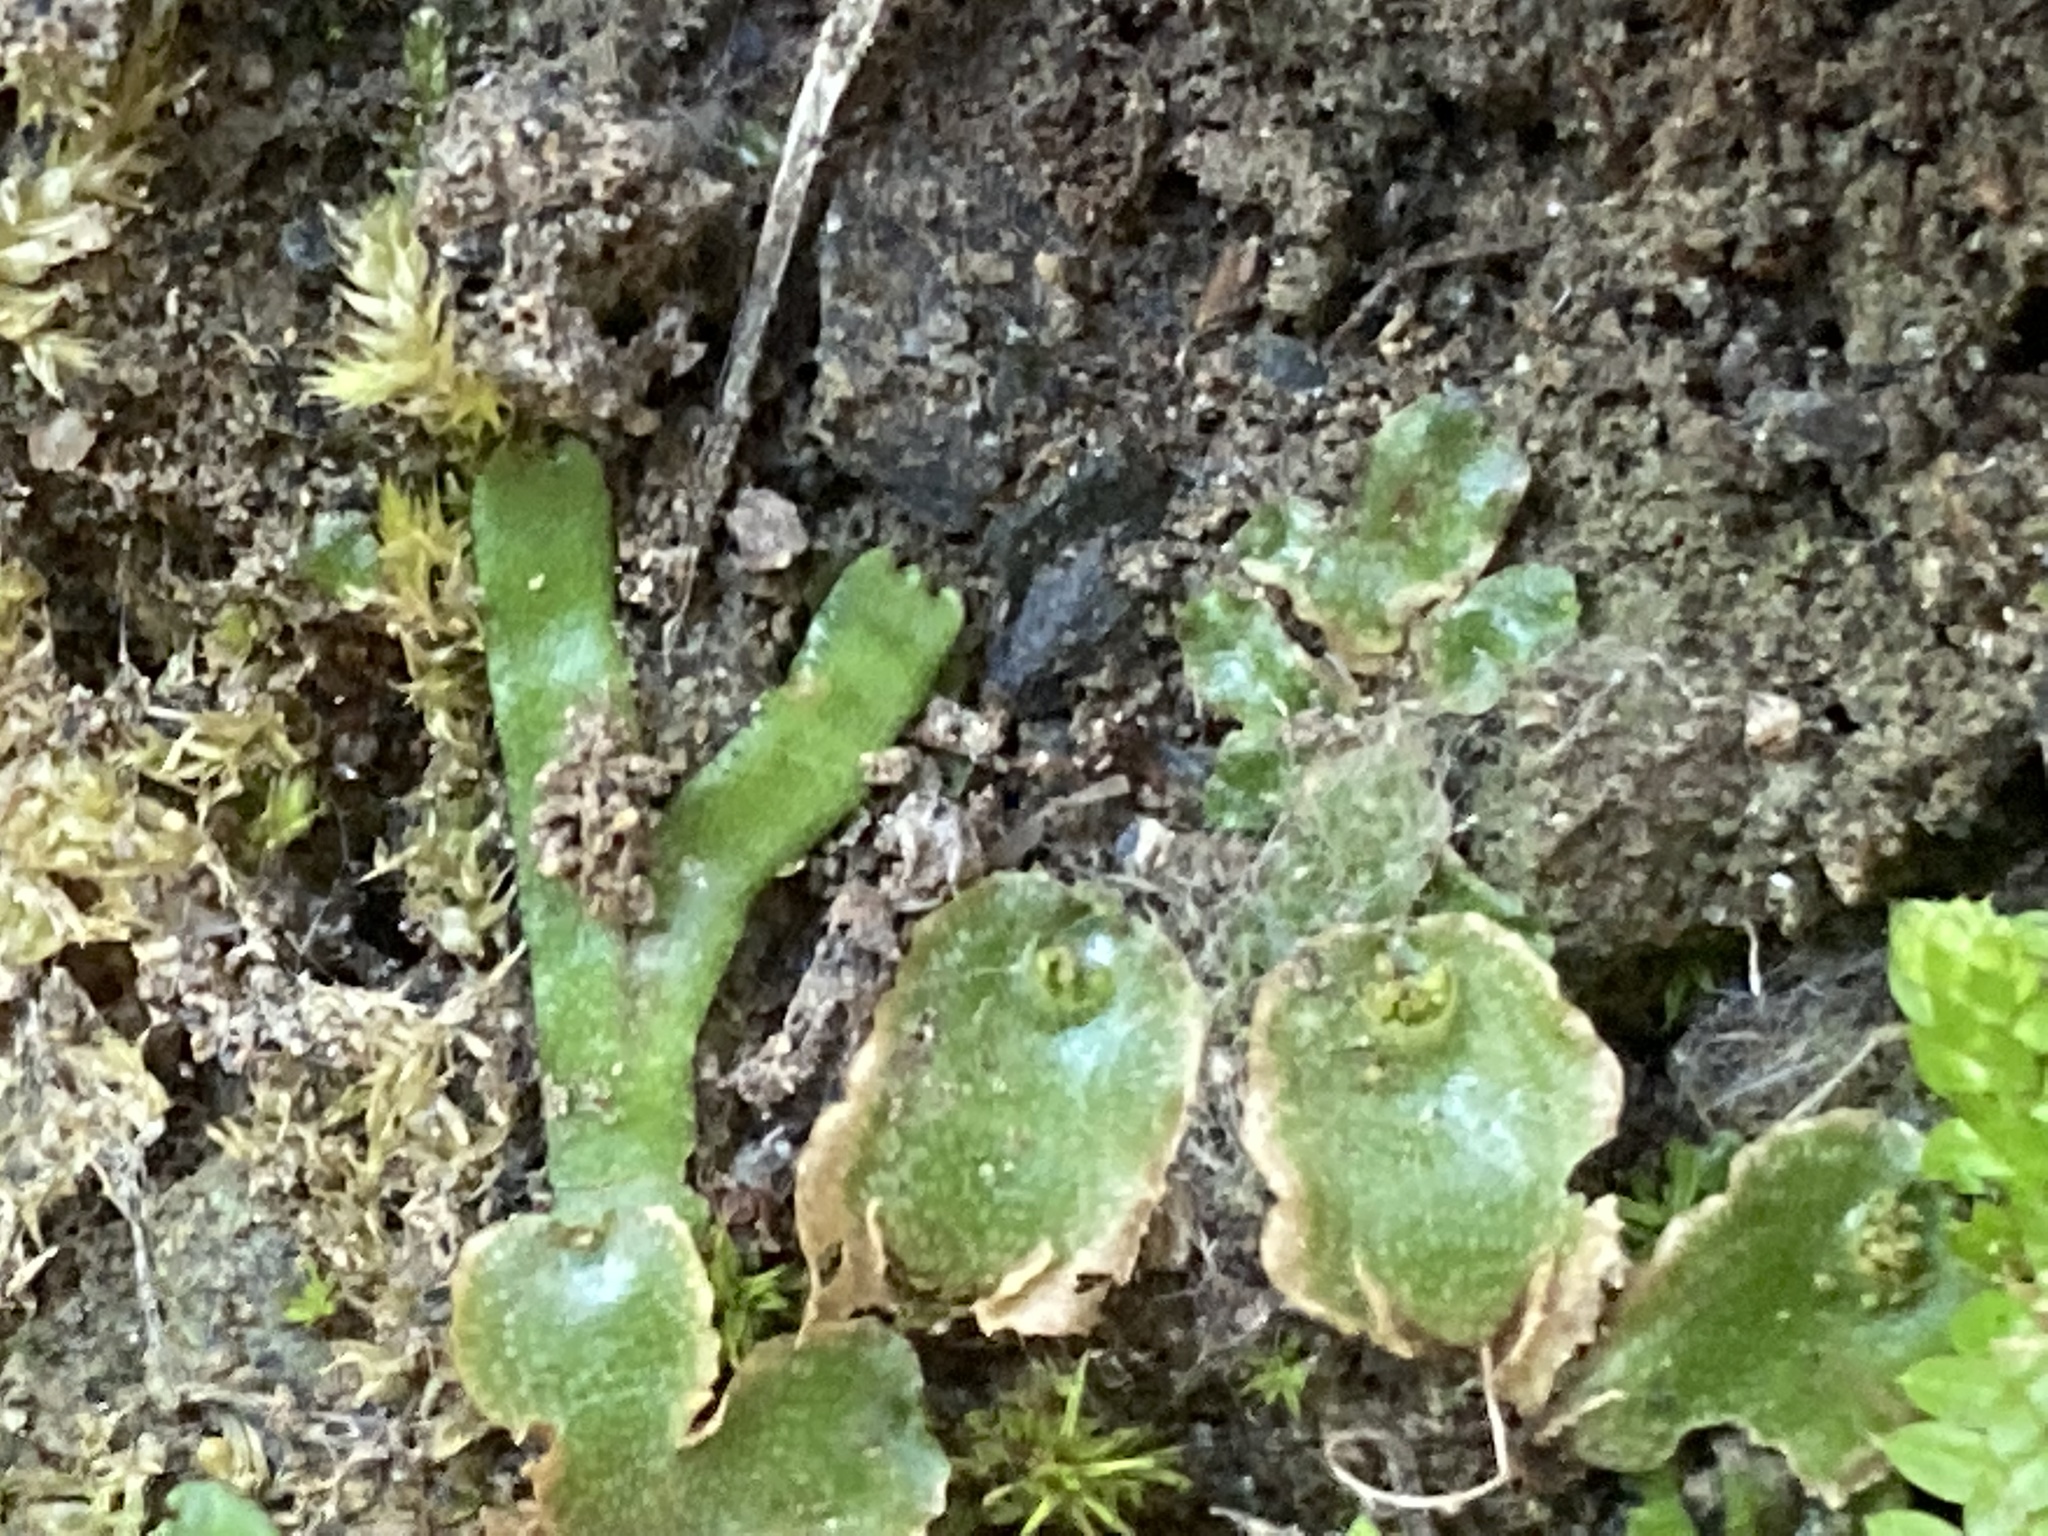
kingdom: Plantae
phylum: Marchantiophyta
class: Marchantiopsida
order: Lunulariales
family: Lunulariaceae
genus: Lunularia
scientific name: Lunularia cruciata
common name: Crescent-cup liverwort
